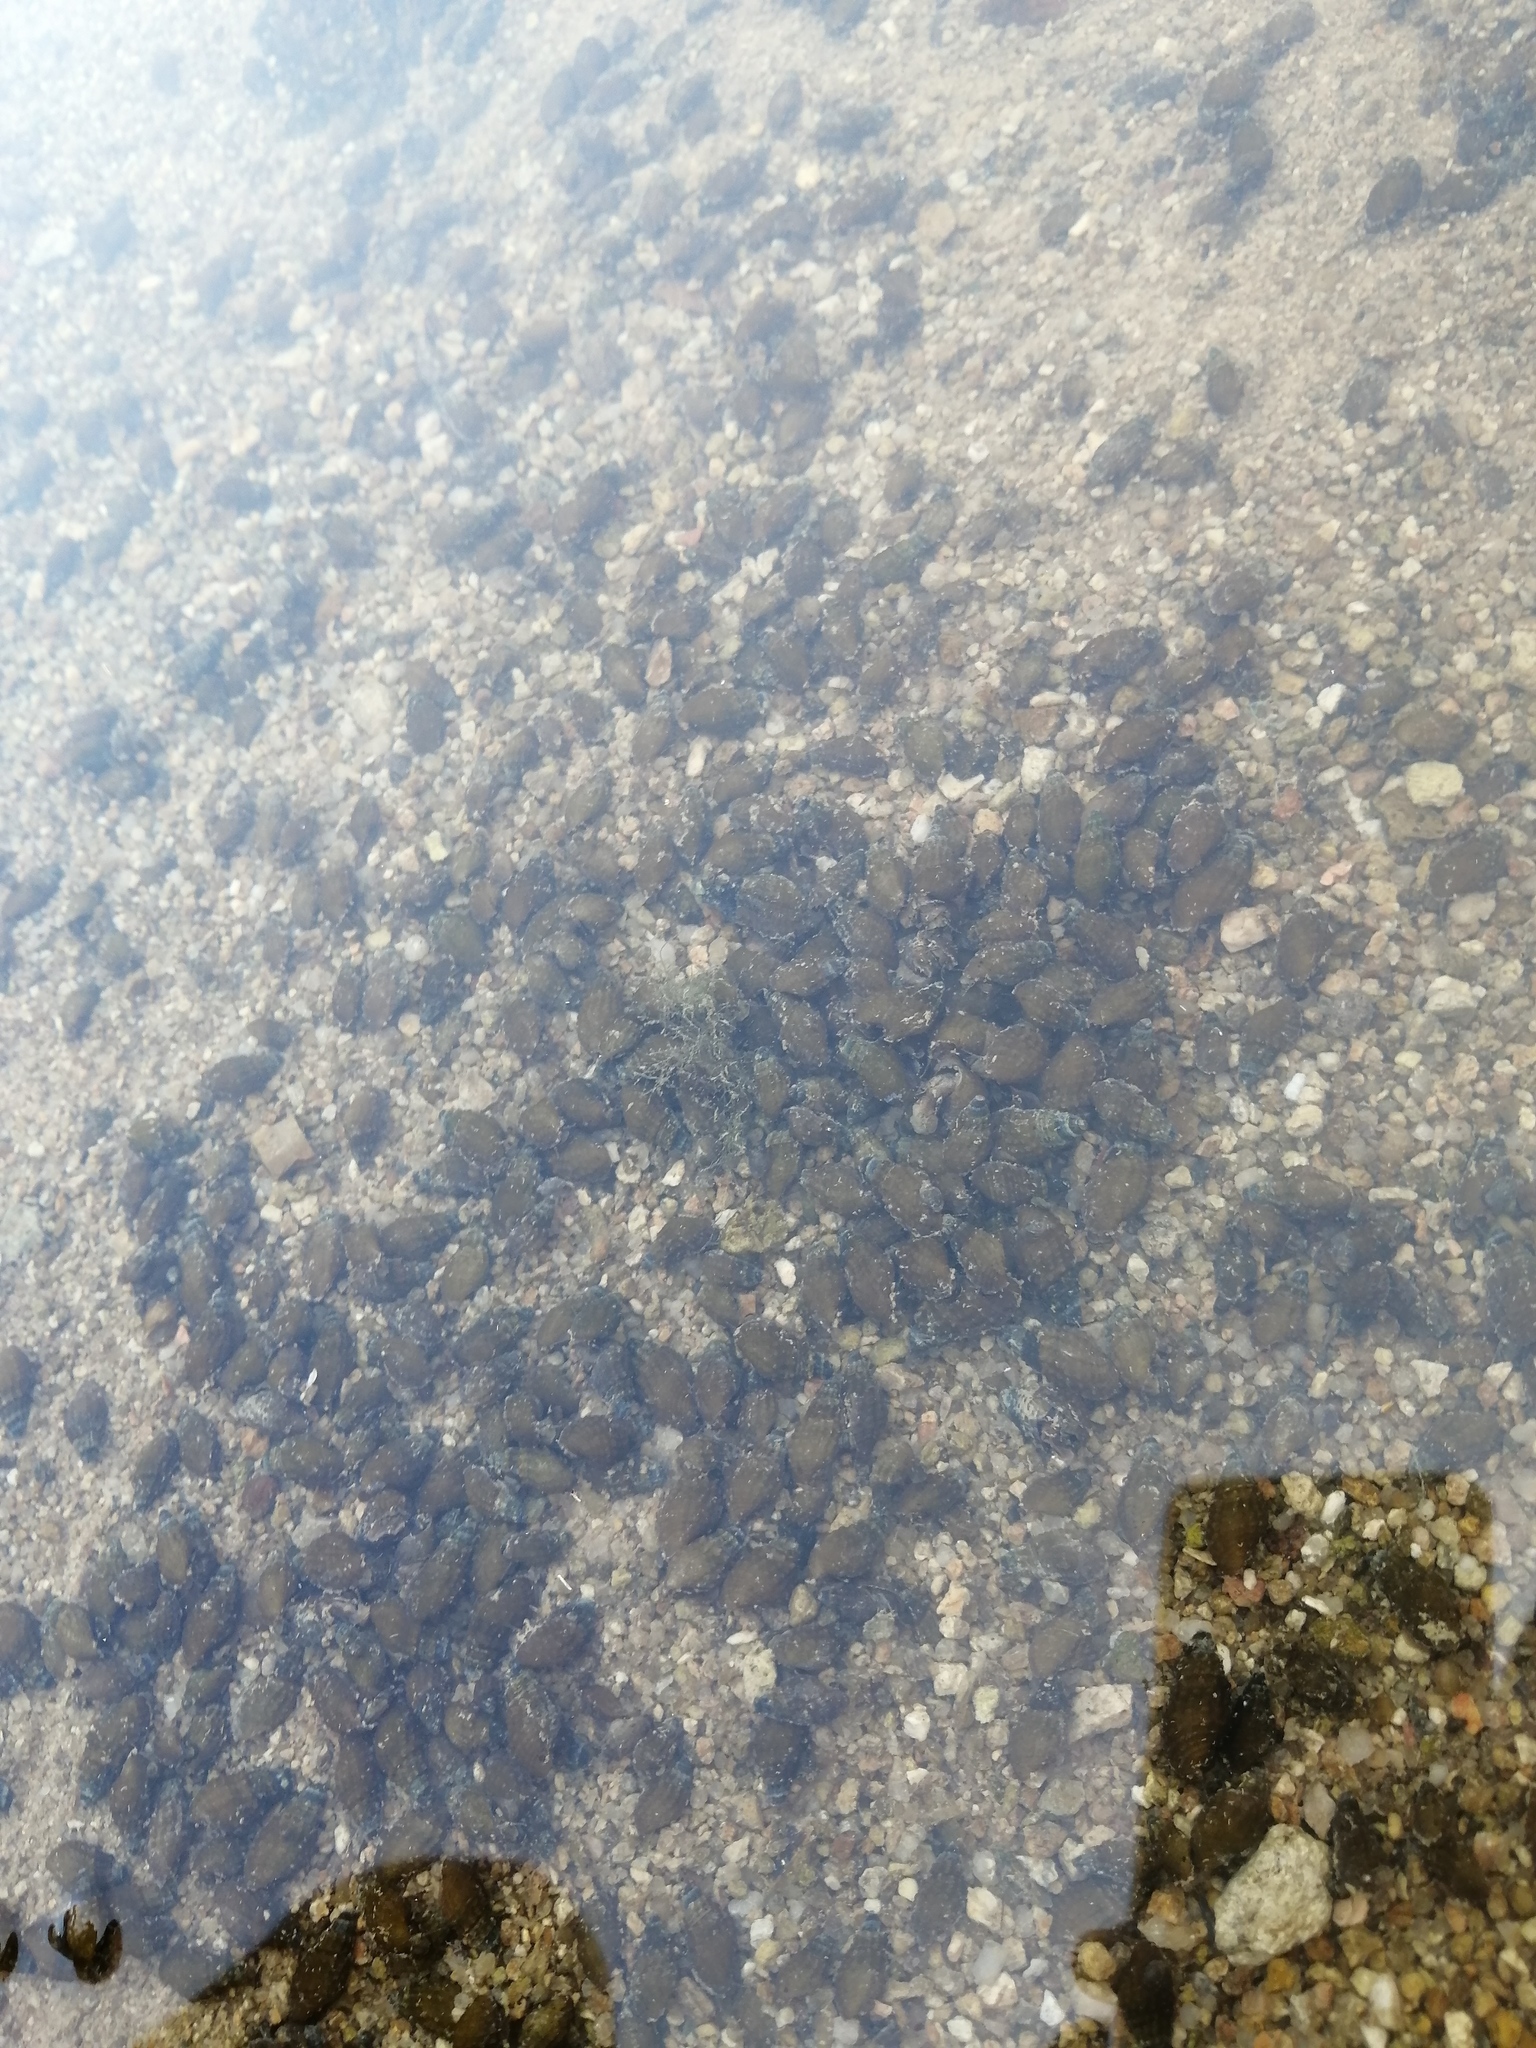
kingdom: Animalia
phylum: Mollusca
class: Gastropoda
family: Thiaridae
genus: Tarebia
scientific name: Tarebia granifera
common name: Quilted melania
